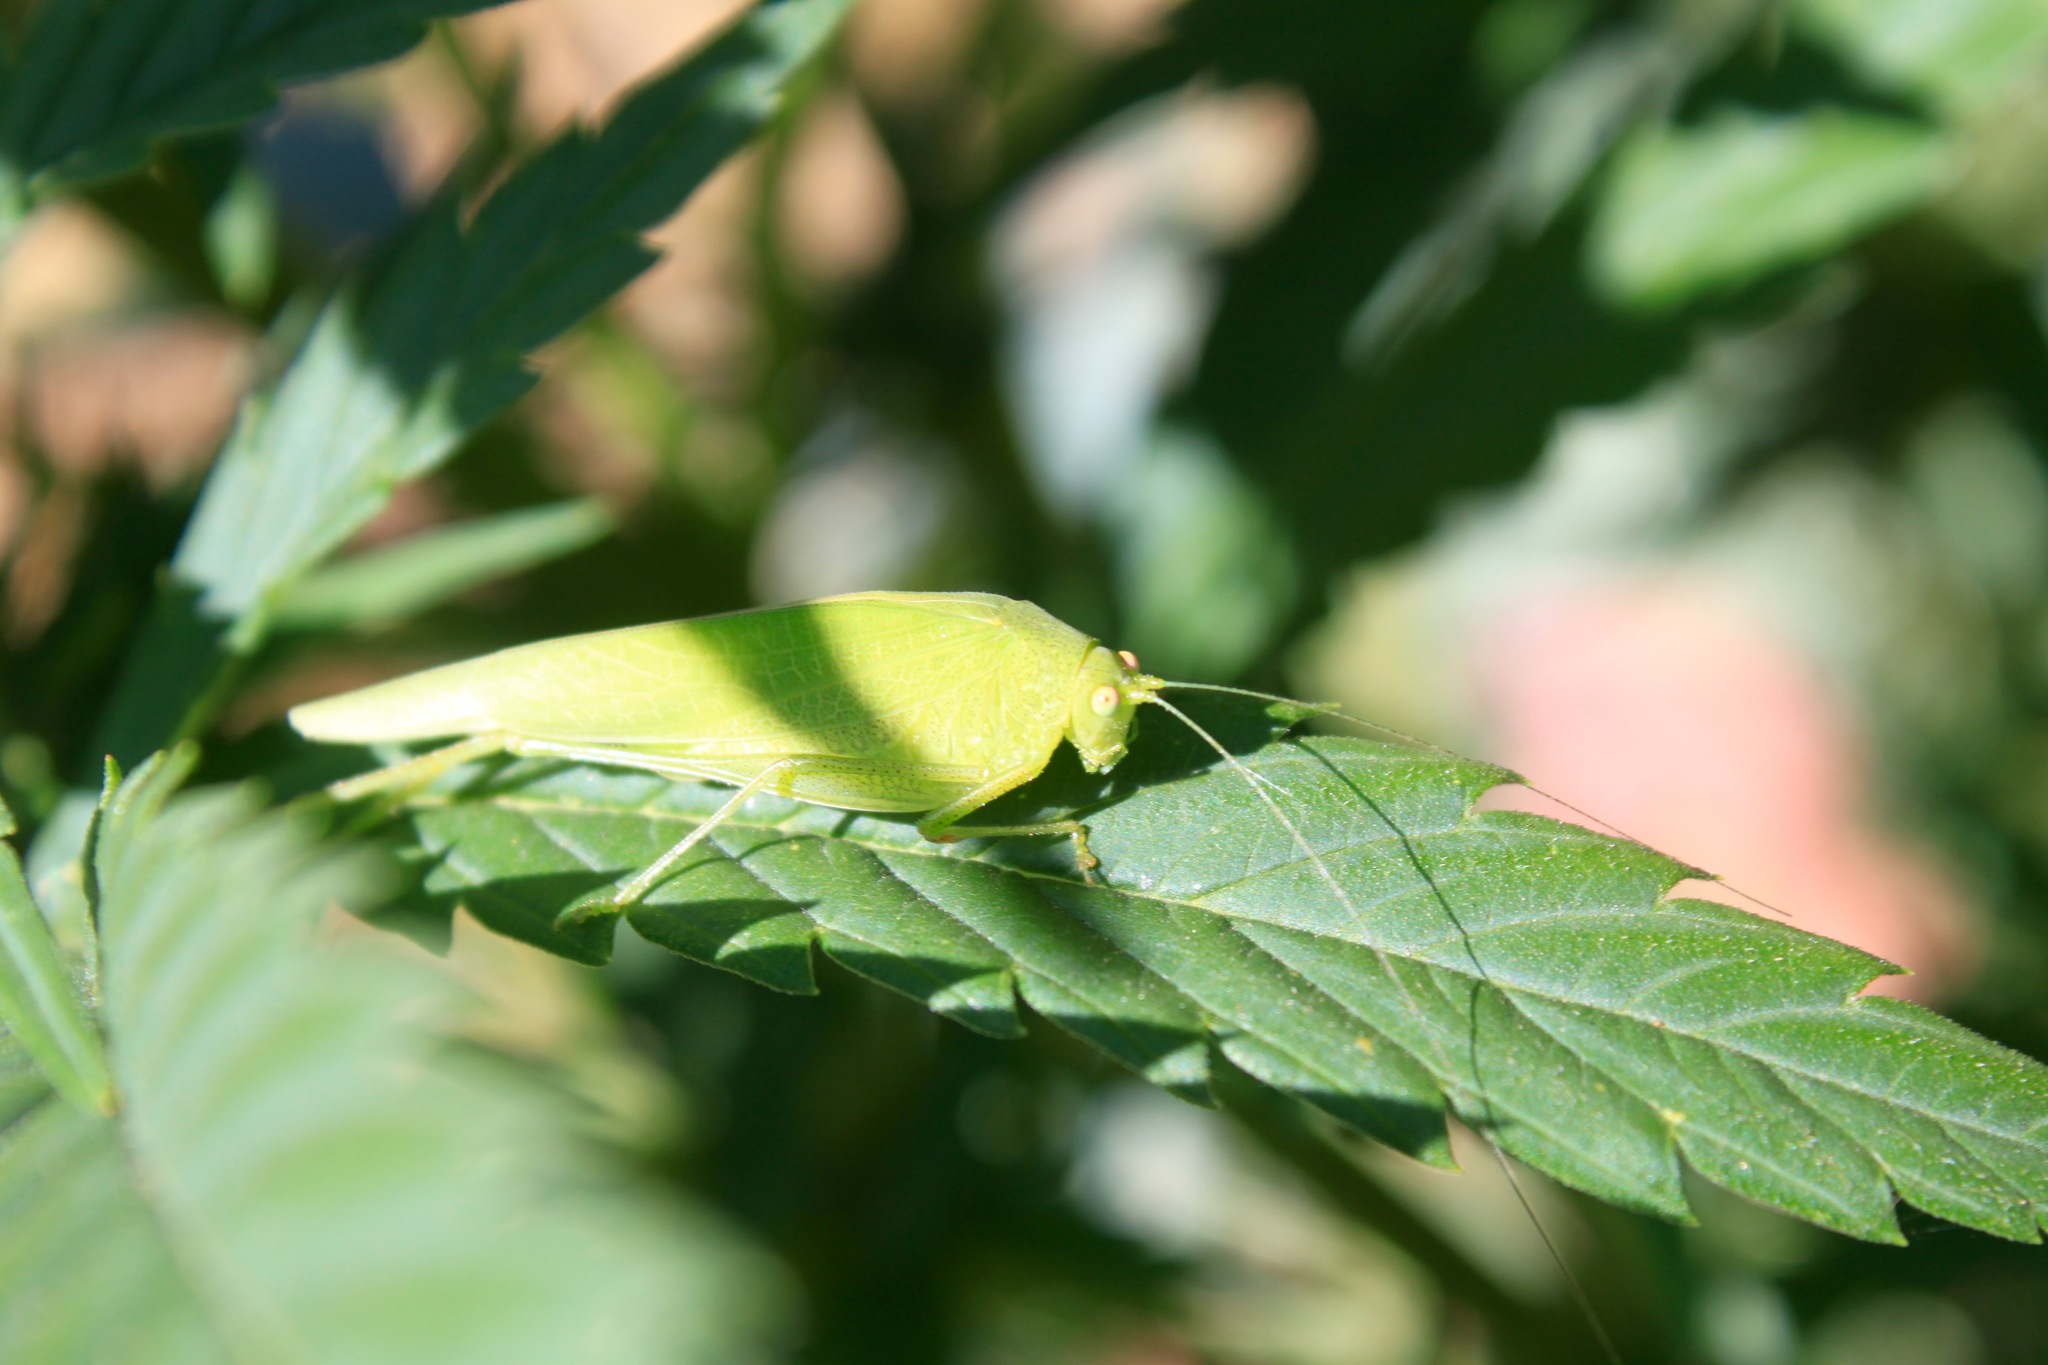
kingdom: Animalia
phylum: Arthropoda
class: Insecta
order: Orthoptera
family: Tettigoniidae
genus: Phaneroptera
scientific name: Phaneroptera nana
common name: Southern sickle bush-cricket
